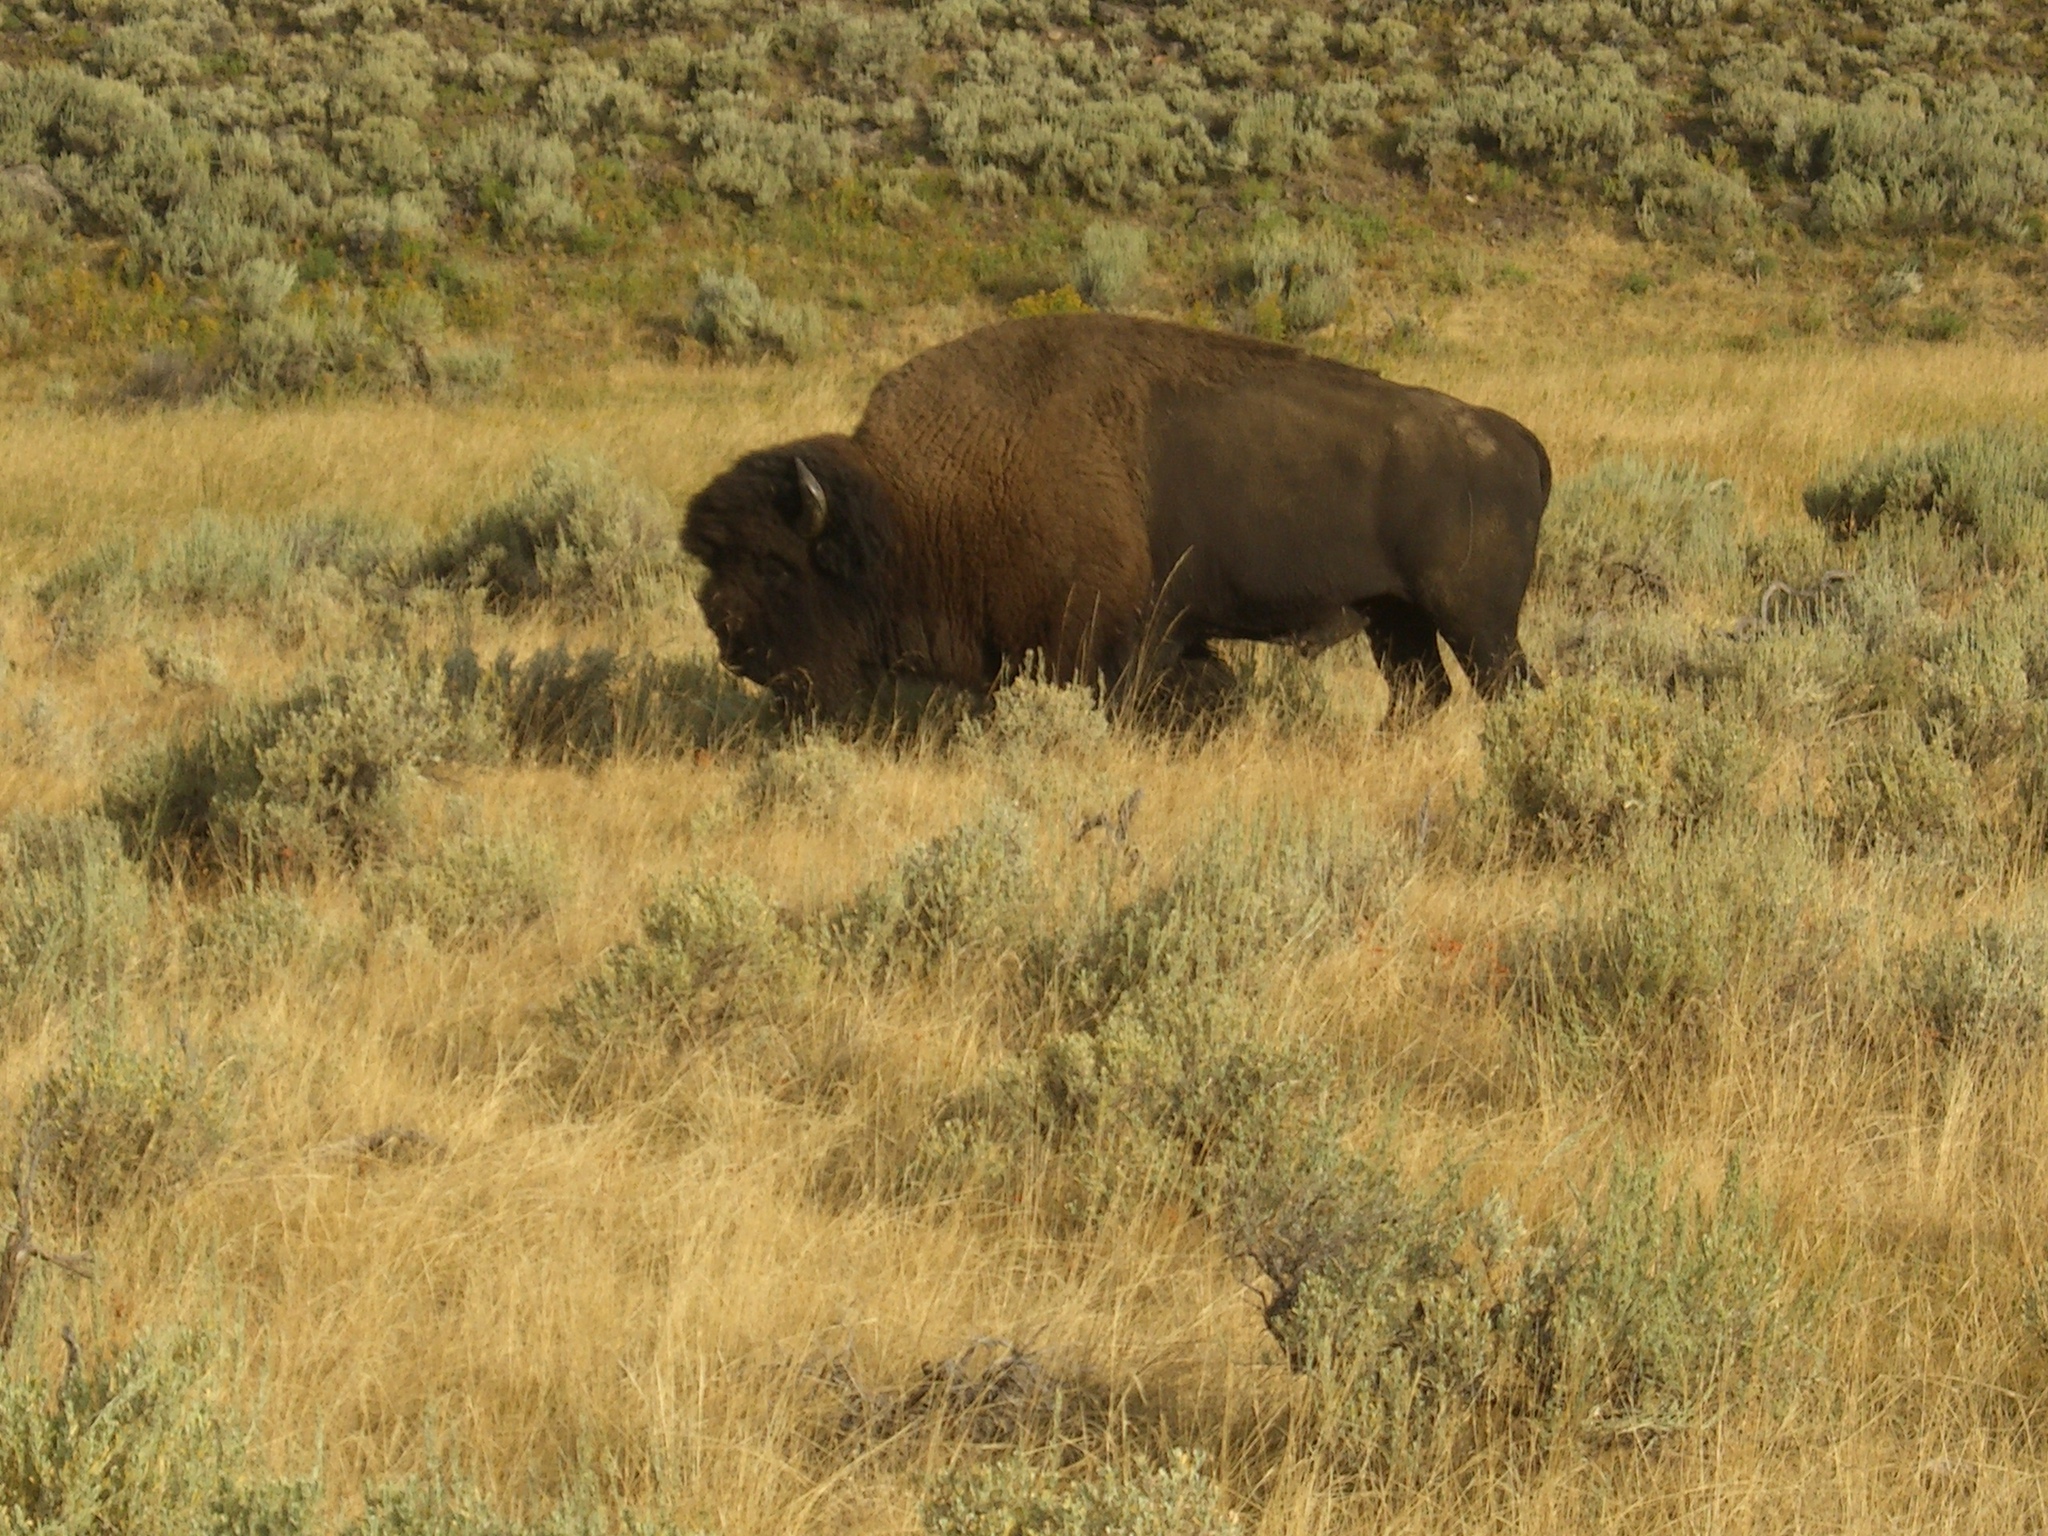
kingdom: Animalia
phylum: Chordata
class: Mammalia
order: Artiodactyla
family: Bovidae
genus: Bison
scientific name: Bison bison
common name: American bison
